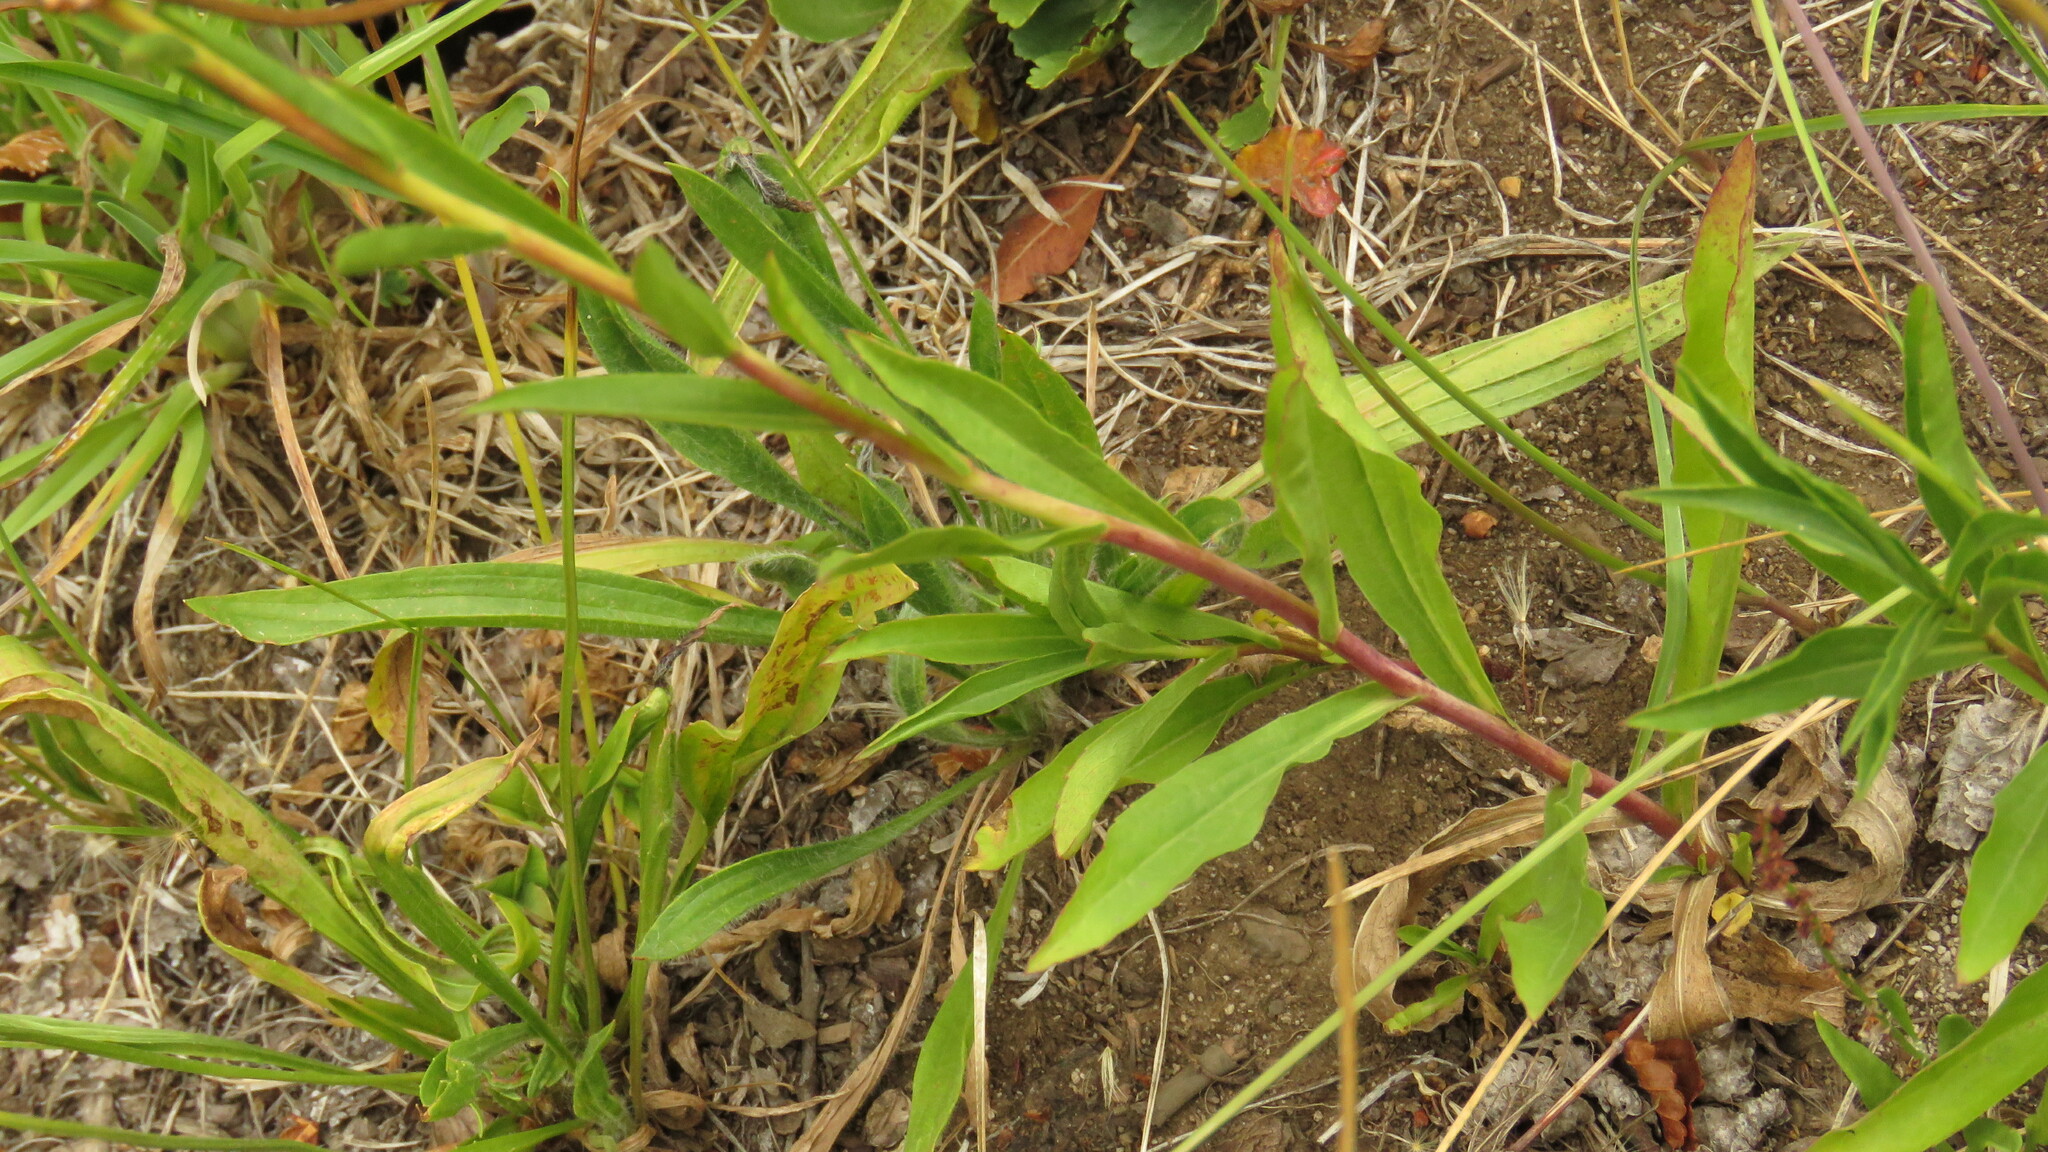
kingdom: Plantae
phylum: Tracheophyta
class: Magnoliopsida
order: Asterales
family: Asteraceae
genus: Solidago
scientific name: Solidago chilensis
